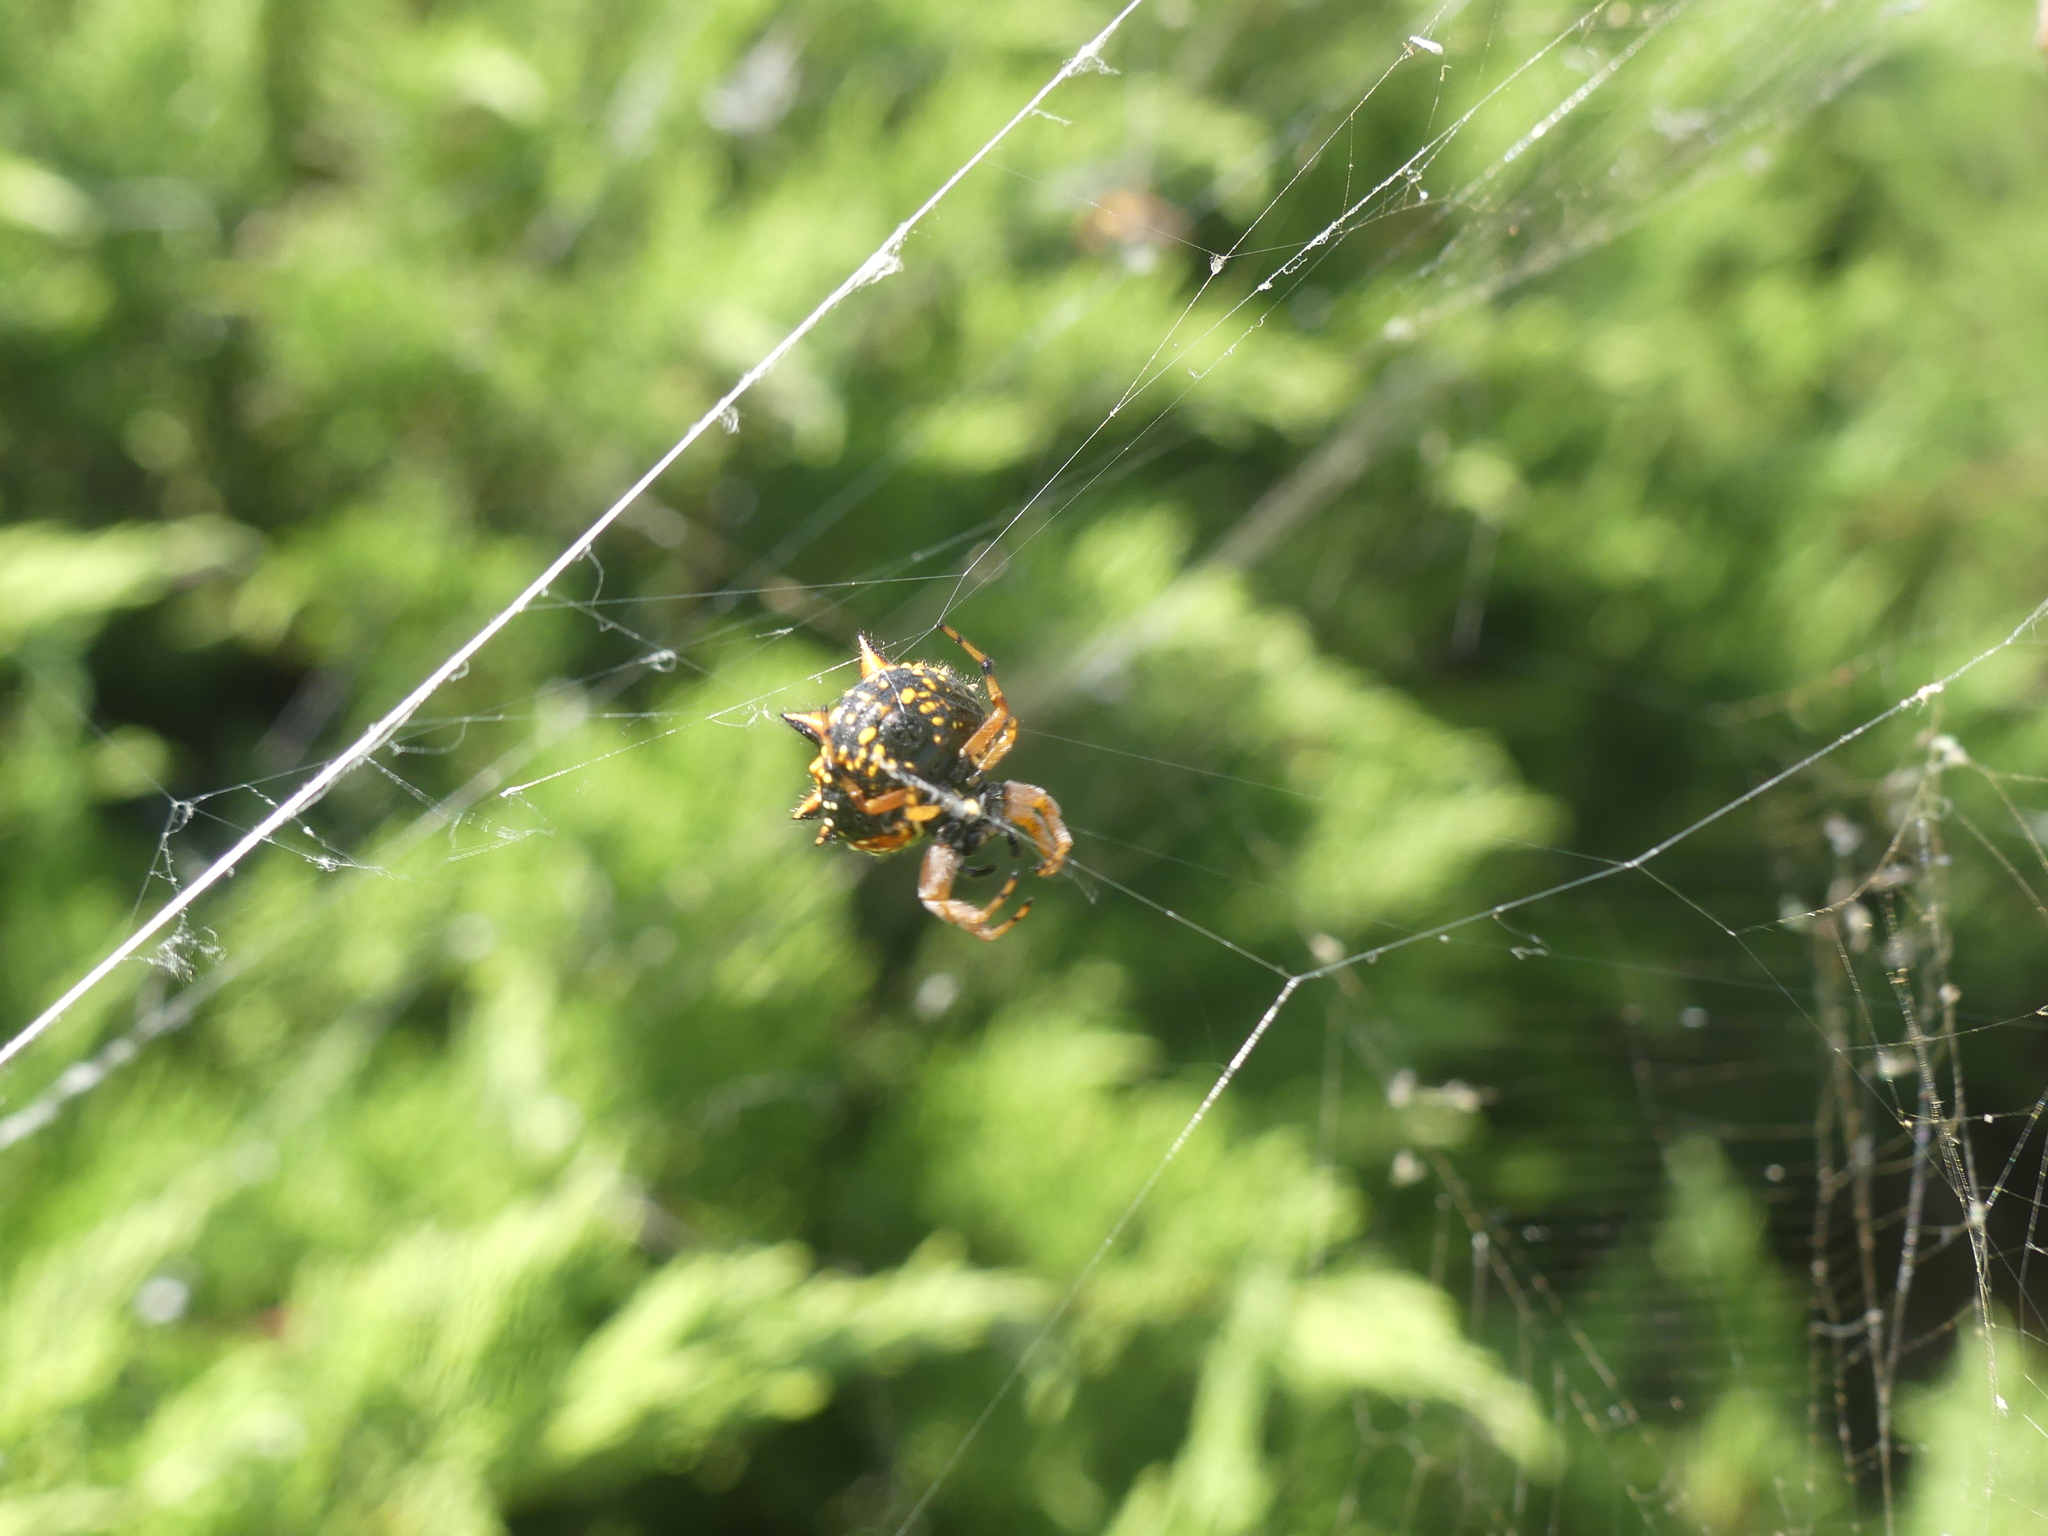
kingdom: Animalia
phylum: Arthropoda
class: Arachnida
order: Araneae
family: Araneidae
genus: Austracantha
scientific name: Austracantha minax
